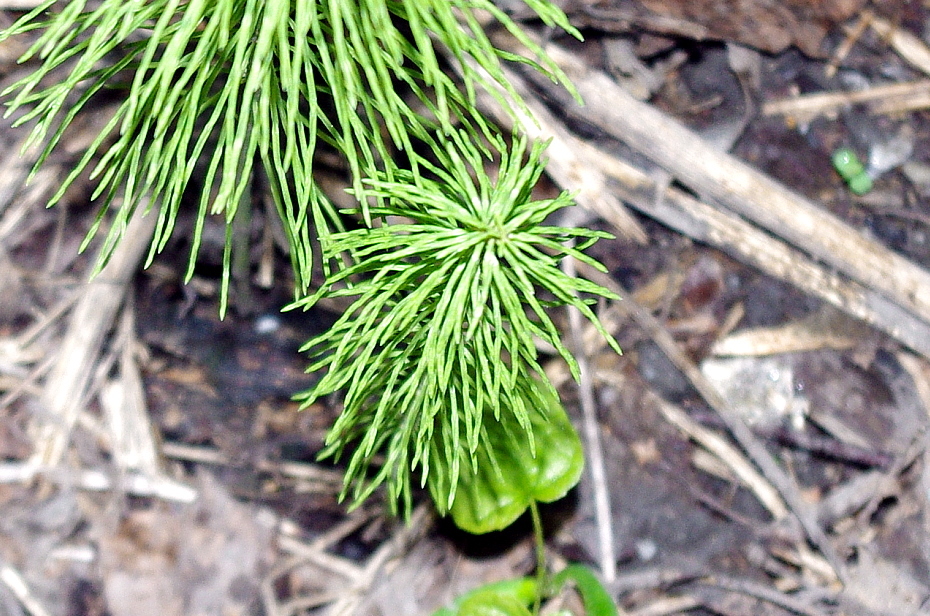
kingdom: Plantae
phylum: Tracheophyta
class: Polypodiopsida
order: Equisetales
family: Equisetaceae
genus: Equisetum
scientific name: Equisetum pratense
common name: Meadow horsetail
